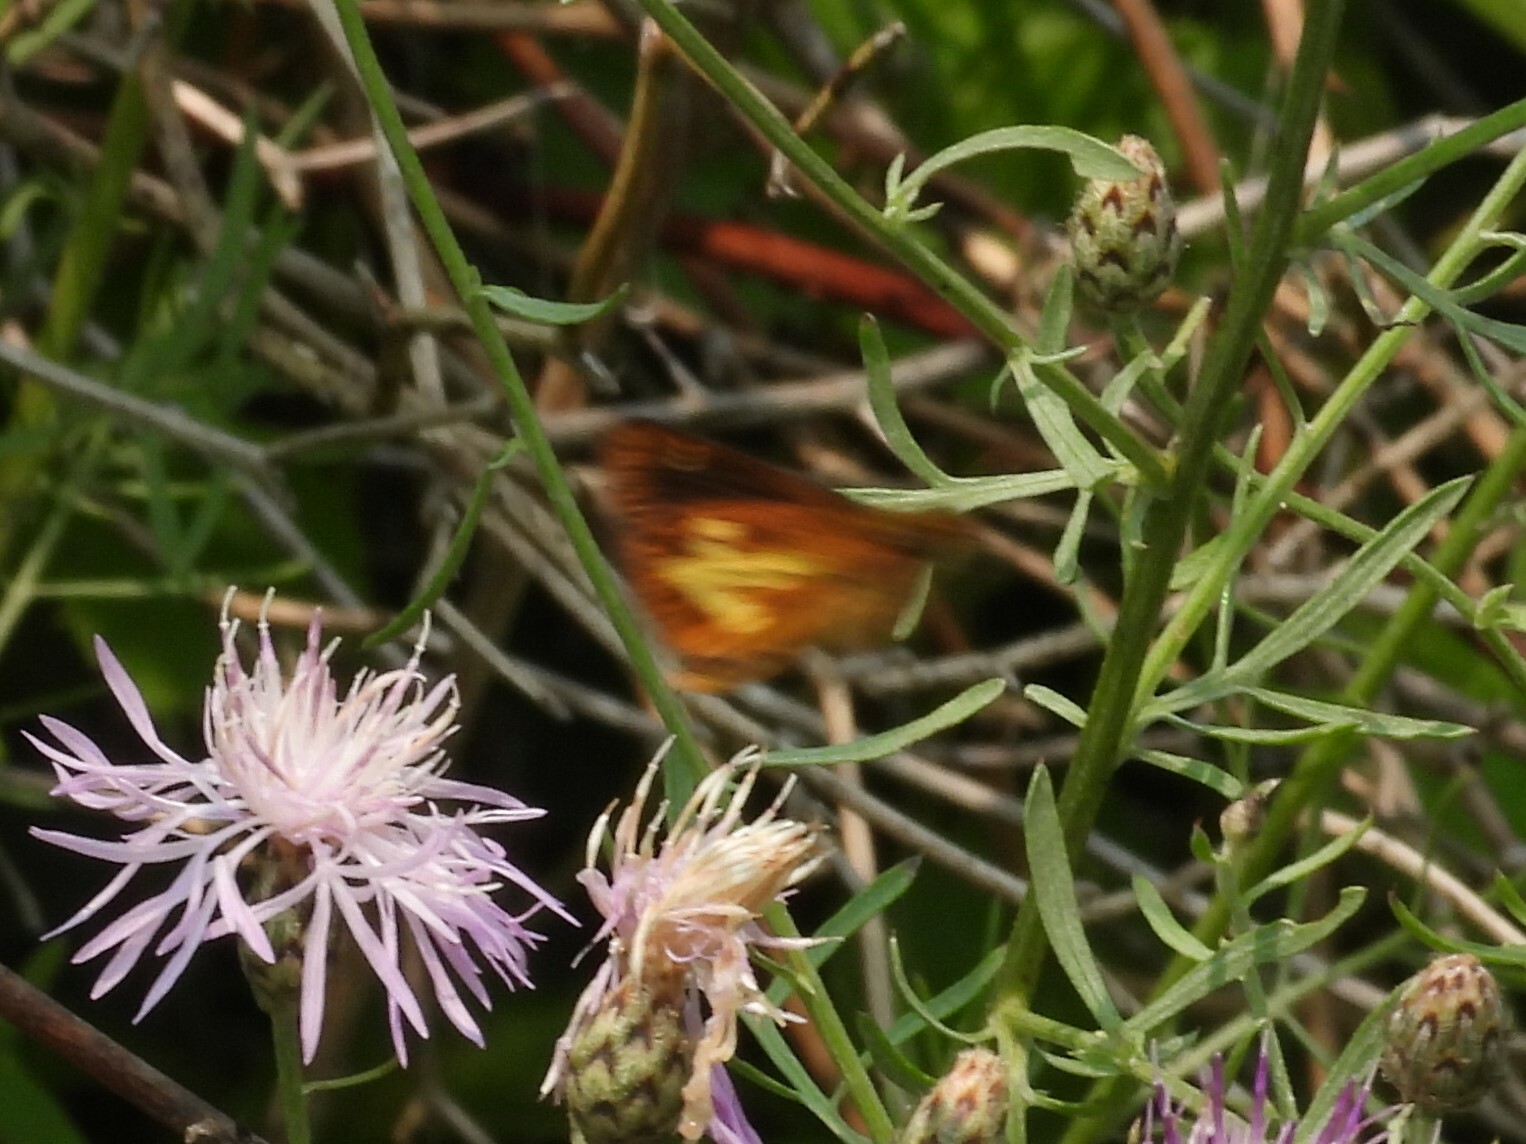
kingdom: Animalia
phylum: Arthropoda
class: Insecta
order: Lepidoptera
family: Hesperiidae
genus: Poanes
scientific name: Poanes massasoit
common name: Mulberrywing
